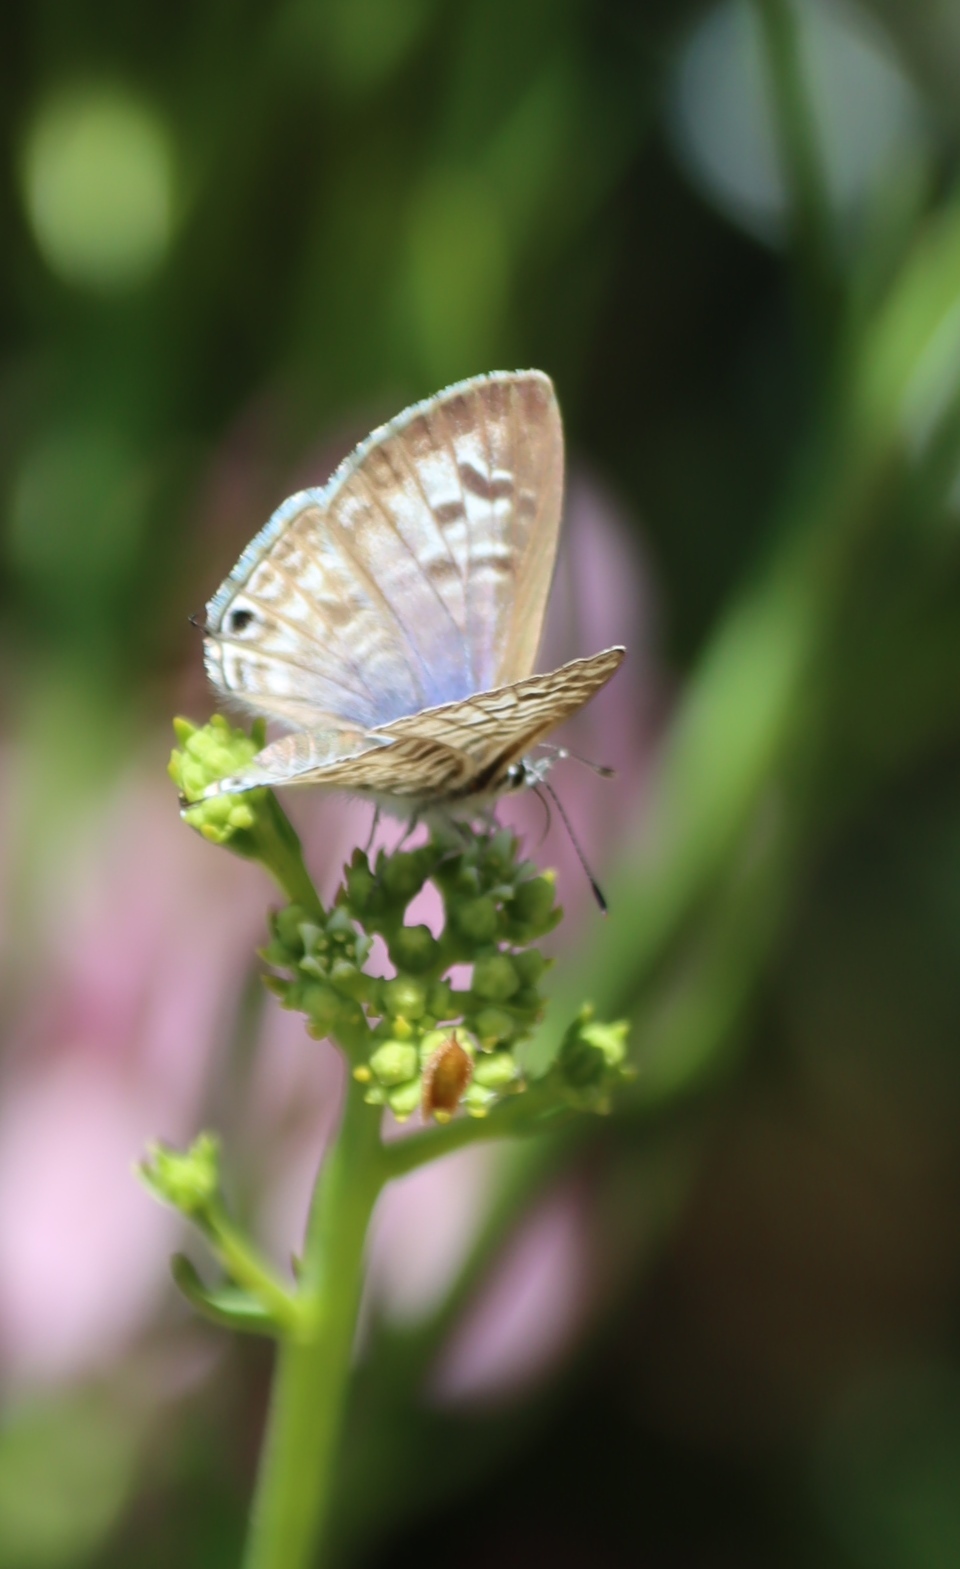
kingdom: Animalia
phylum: Arthropoda
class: Insecta
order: Lepidoptera
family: Lycaenidae
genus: Leptotes
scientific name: Leptotes
